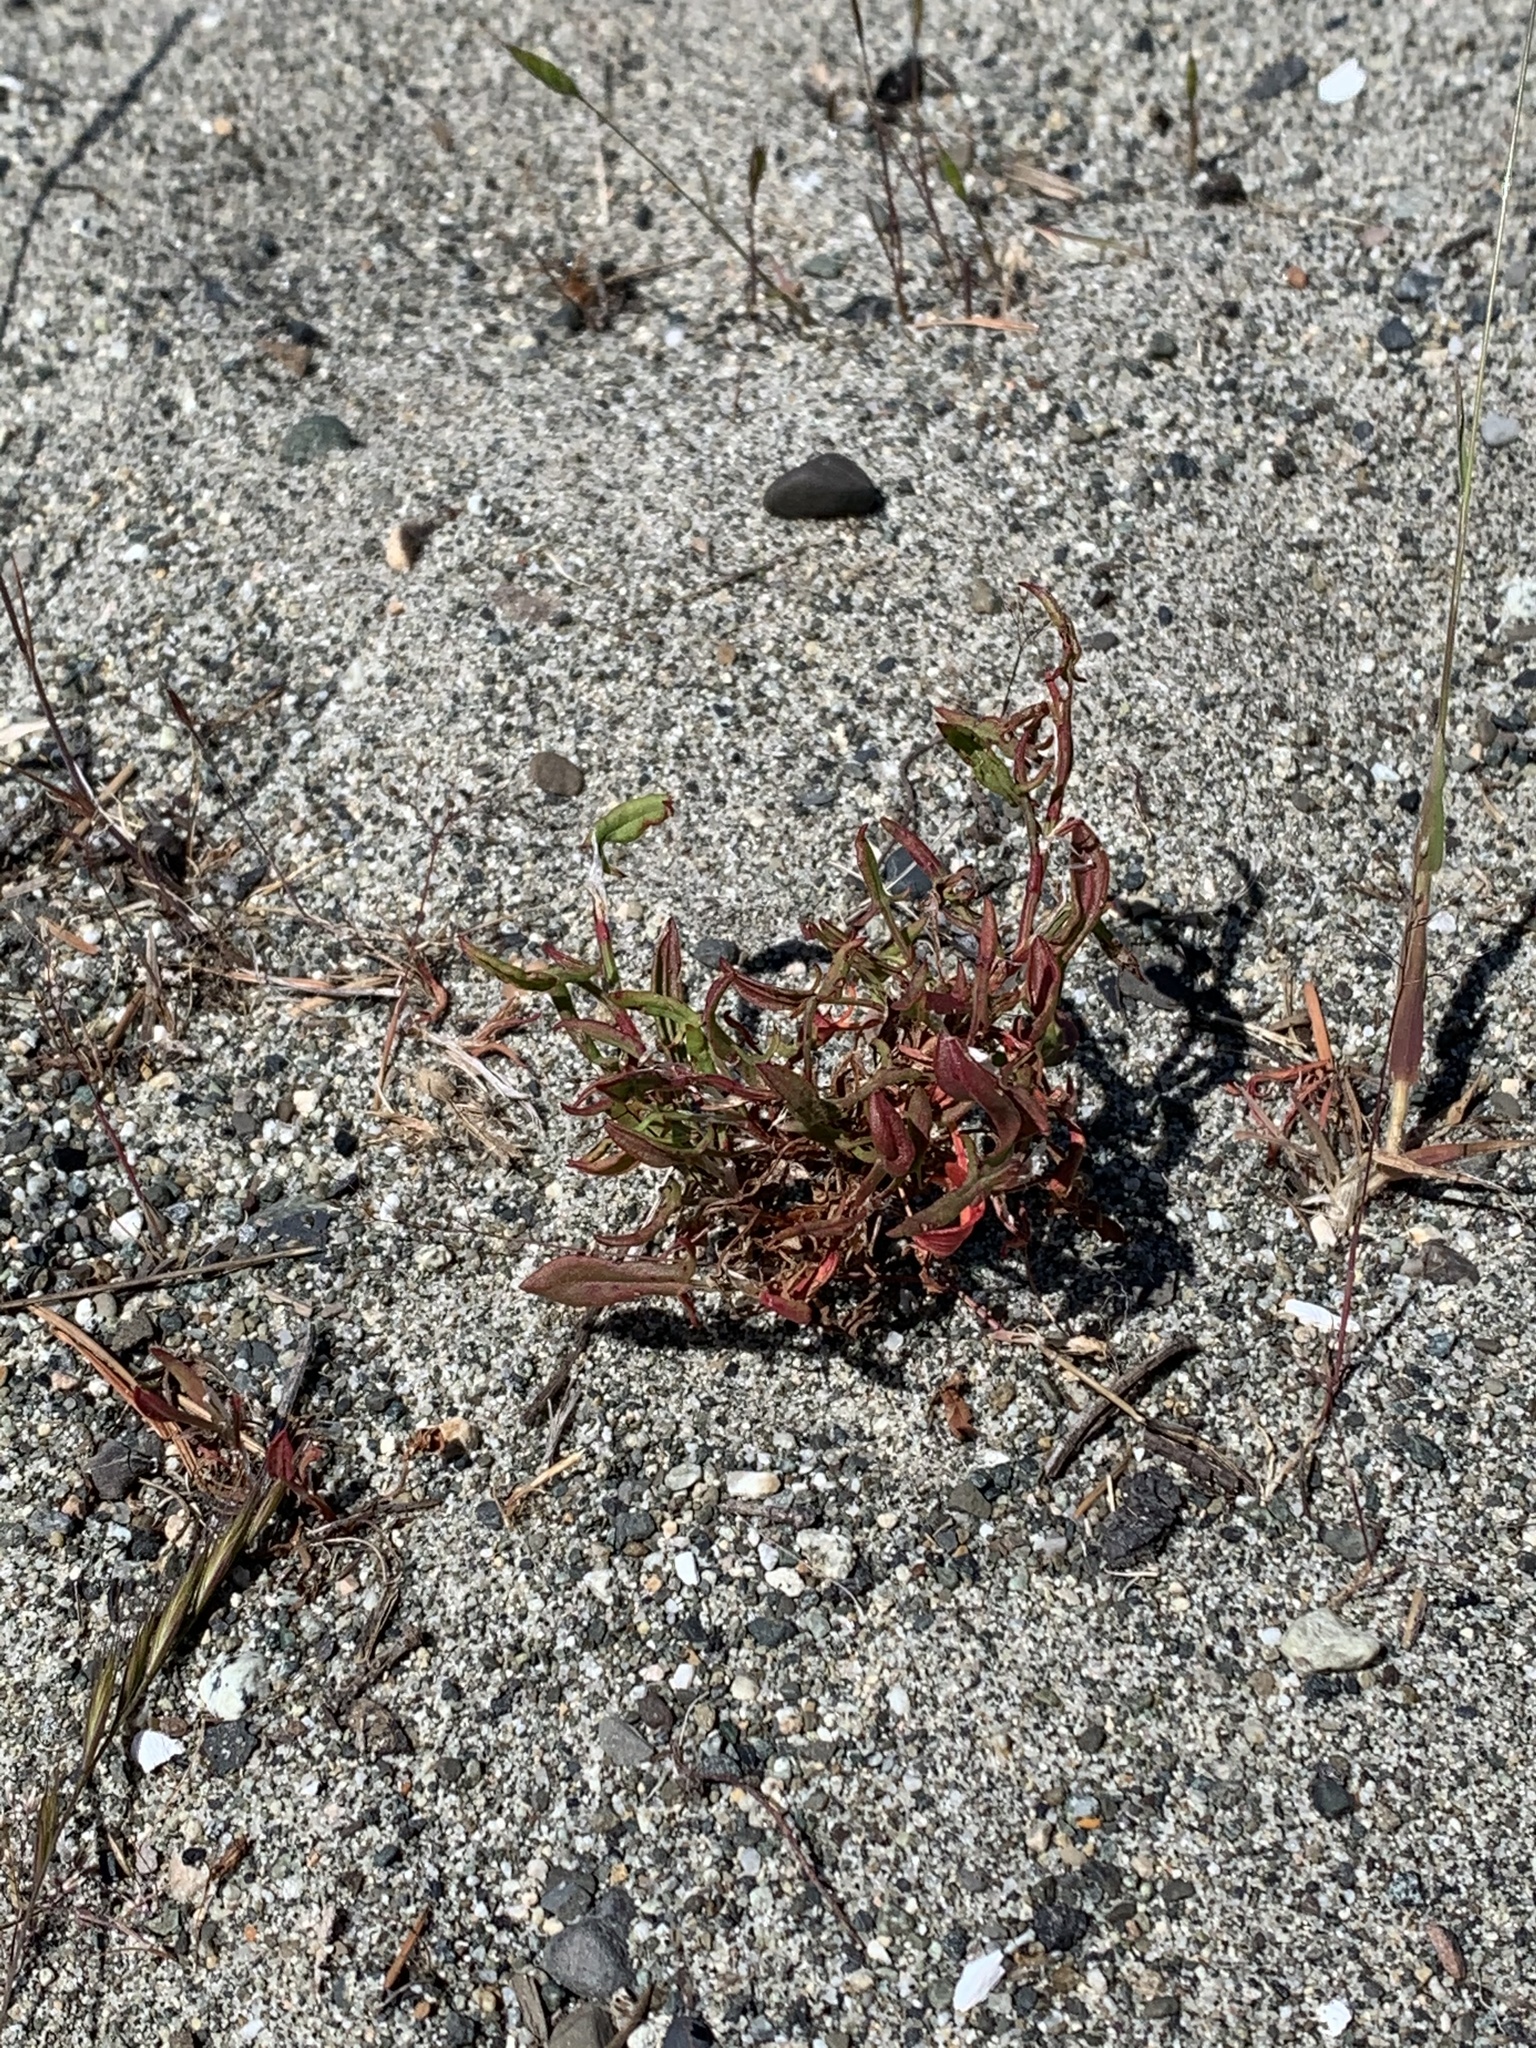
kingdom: Plantae
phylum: Tracheophyta
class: Magnoliopsida
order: Caryophyllales
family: Polygonaceae
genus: Rumex
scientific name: Rumex acetosella
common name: Common sheep sorrel
